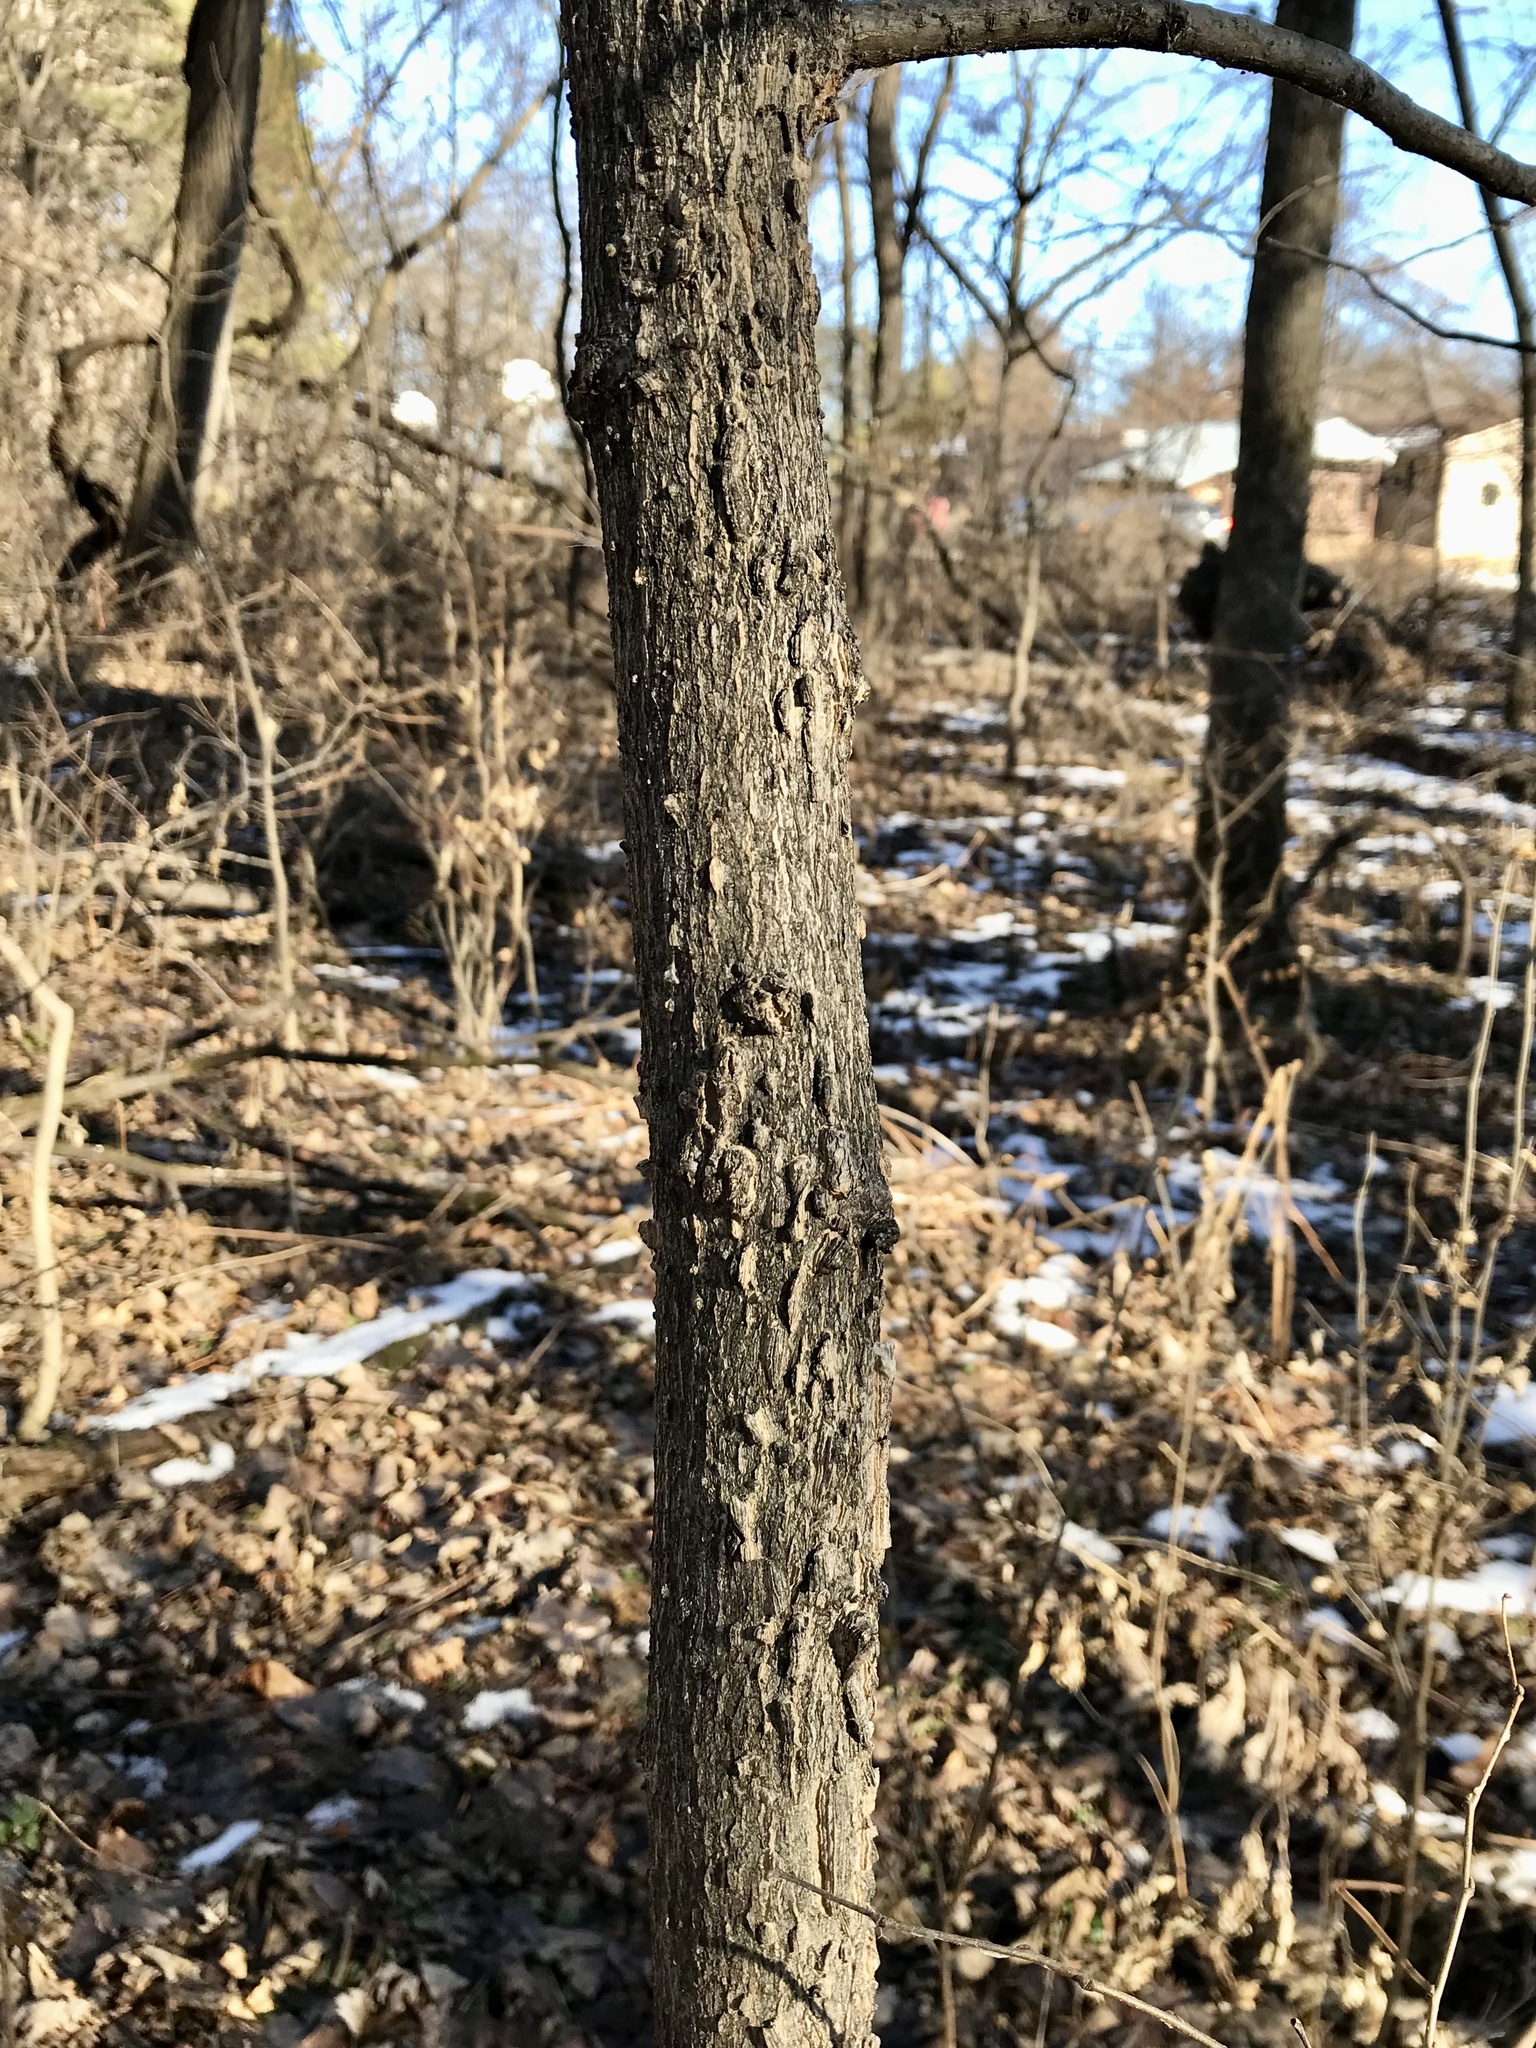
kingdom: Plantae
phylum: Tracheophyta
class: Magnoliopsida
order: Rosales
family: Cannabaceae
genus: Celtis
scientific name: Celtis occidentalis
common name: Common hackberry
